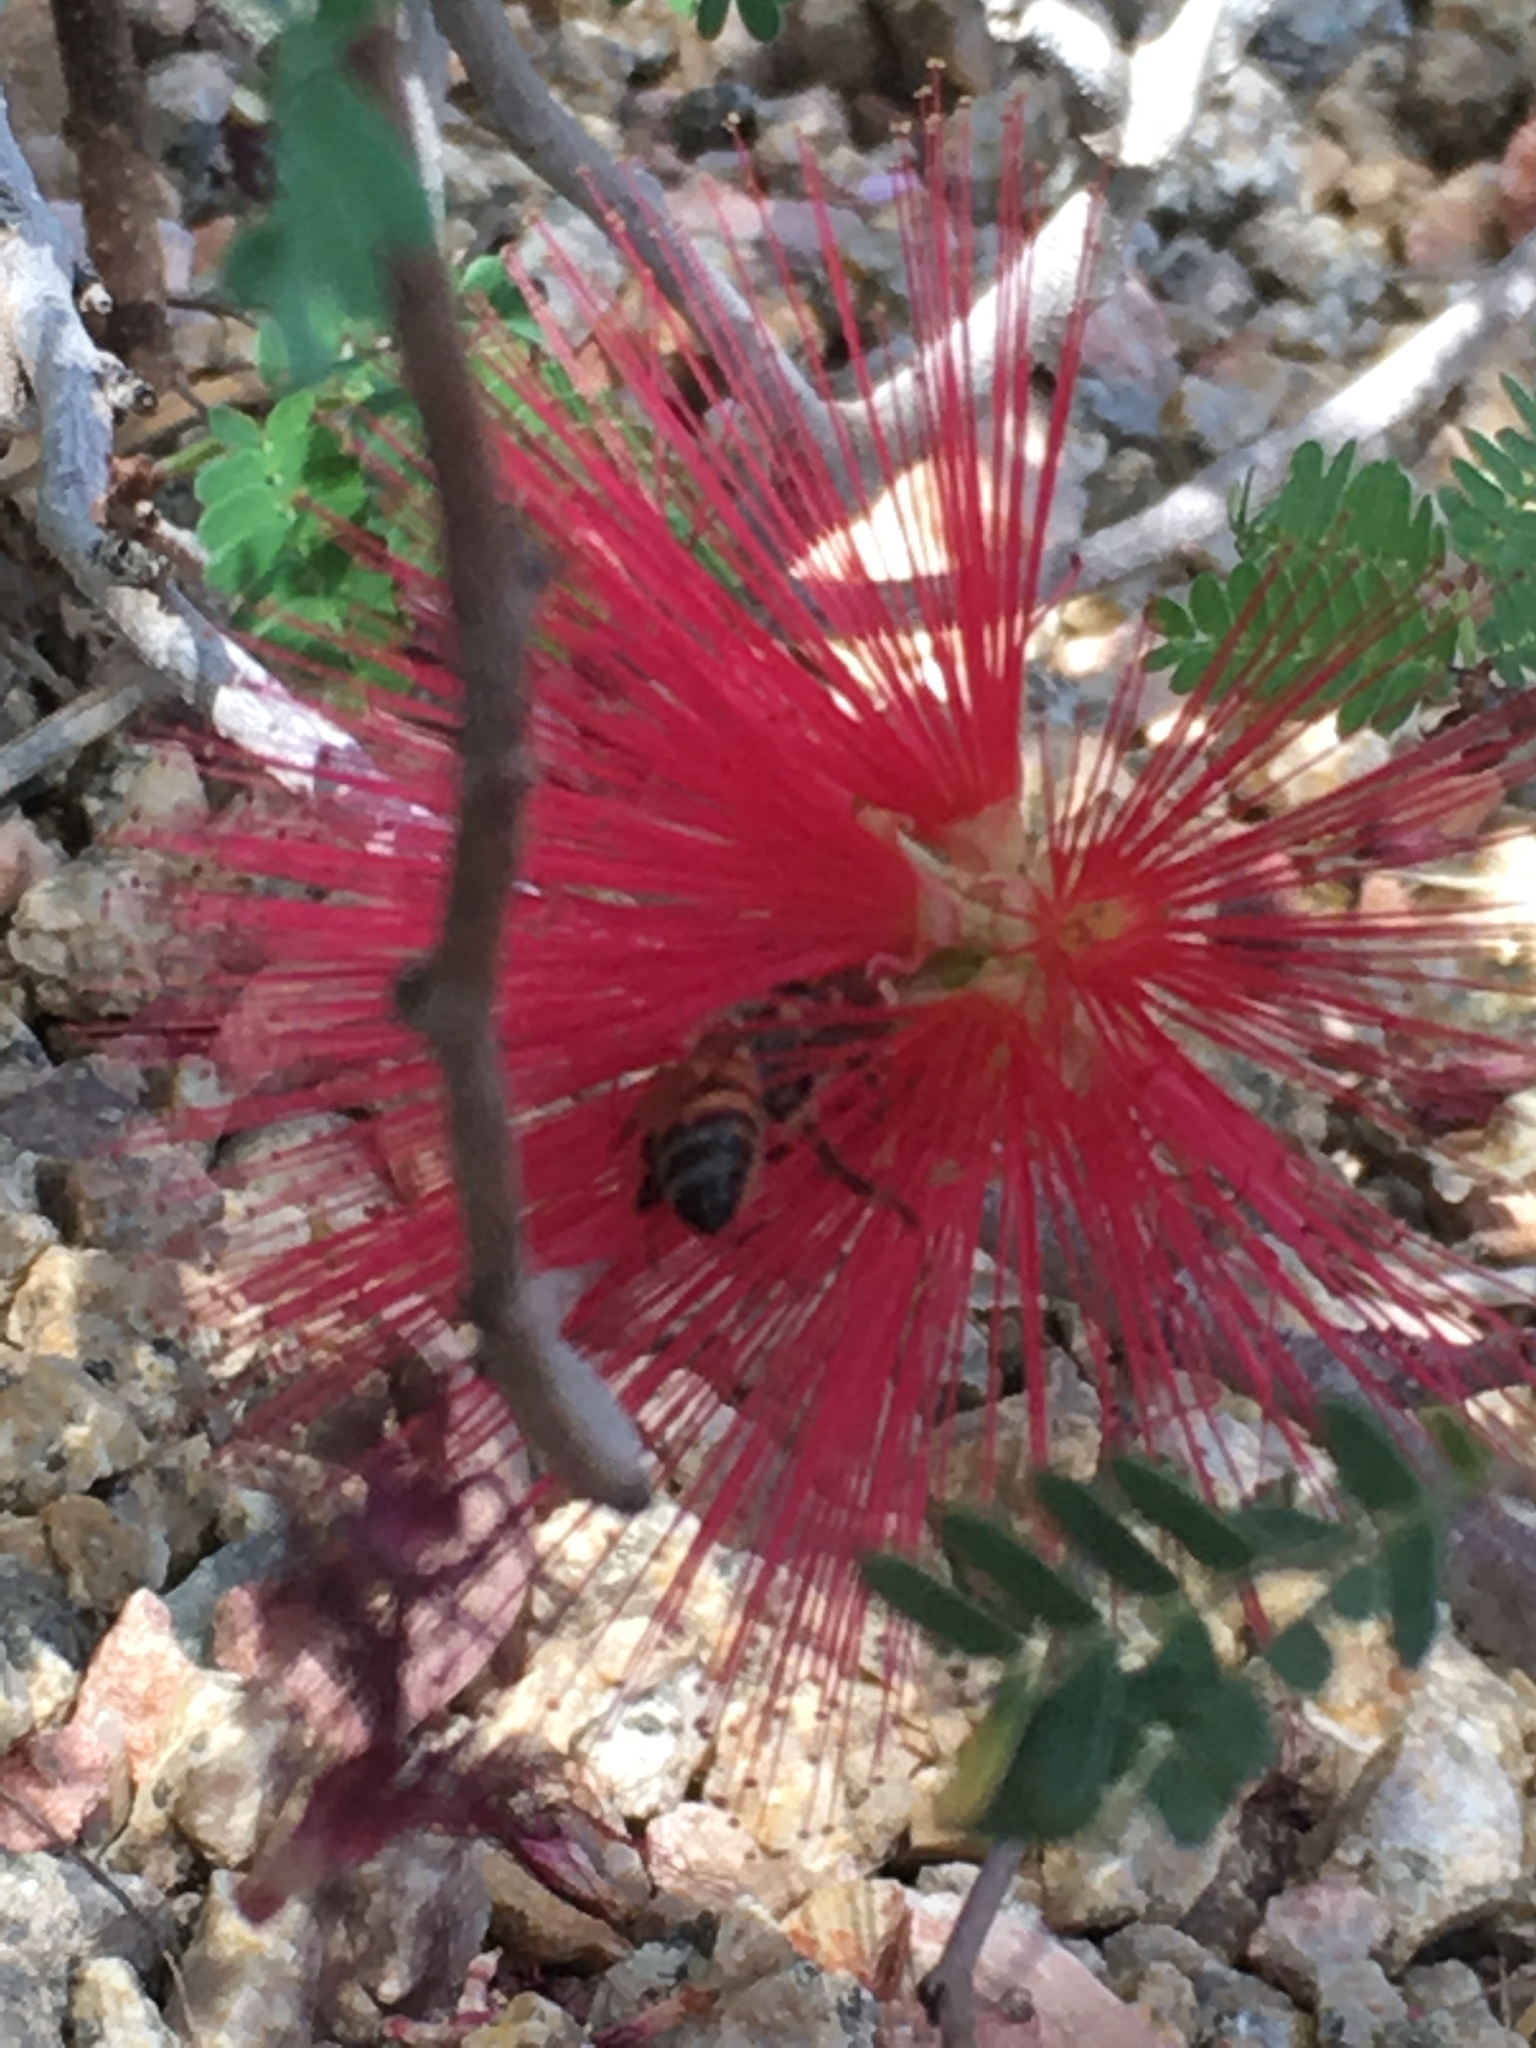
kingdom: Animalia
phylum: Arthropoda
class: Insecta
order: Hymenoptera
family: Apidae
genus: Apis
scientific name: Apis mellifera
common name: Honey bee
